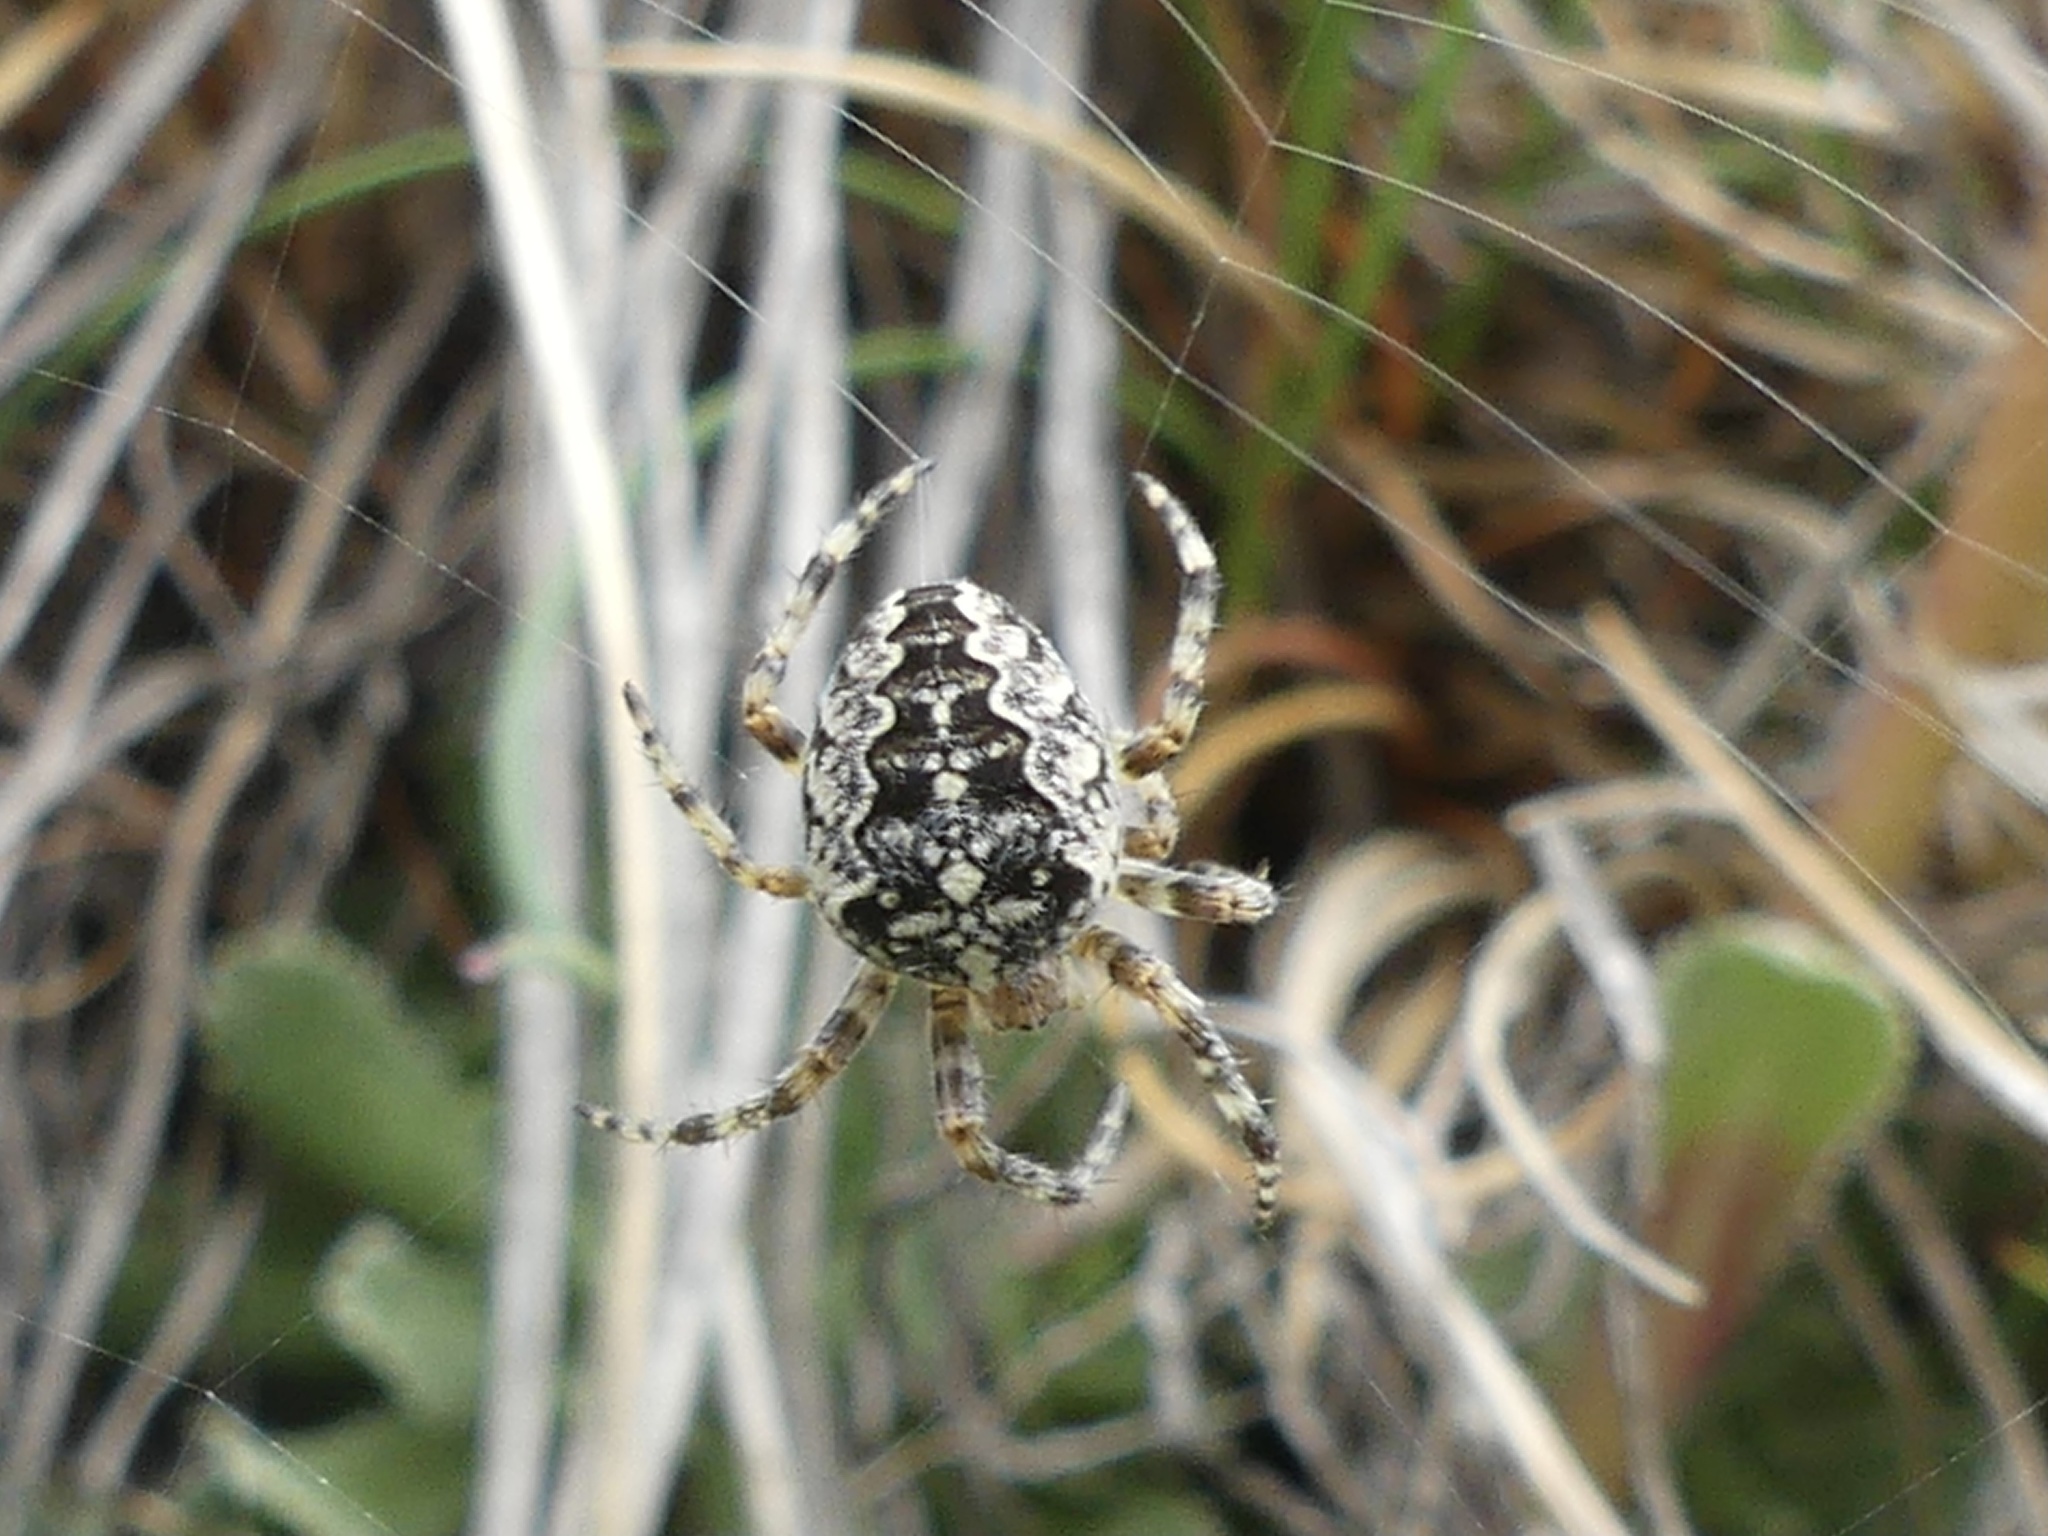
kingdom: Animalia
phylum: Arthropoda
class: Arachnida
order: Araneae
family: Araneidae
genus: Araneus
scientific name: Araneus diadematus
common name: Cross orbweaver
